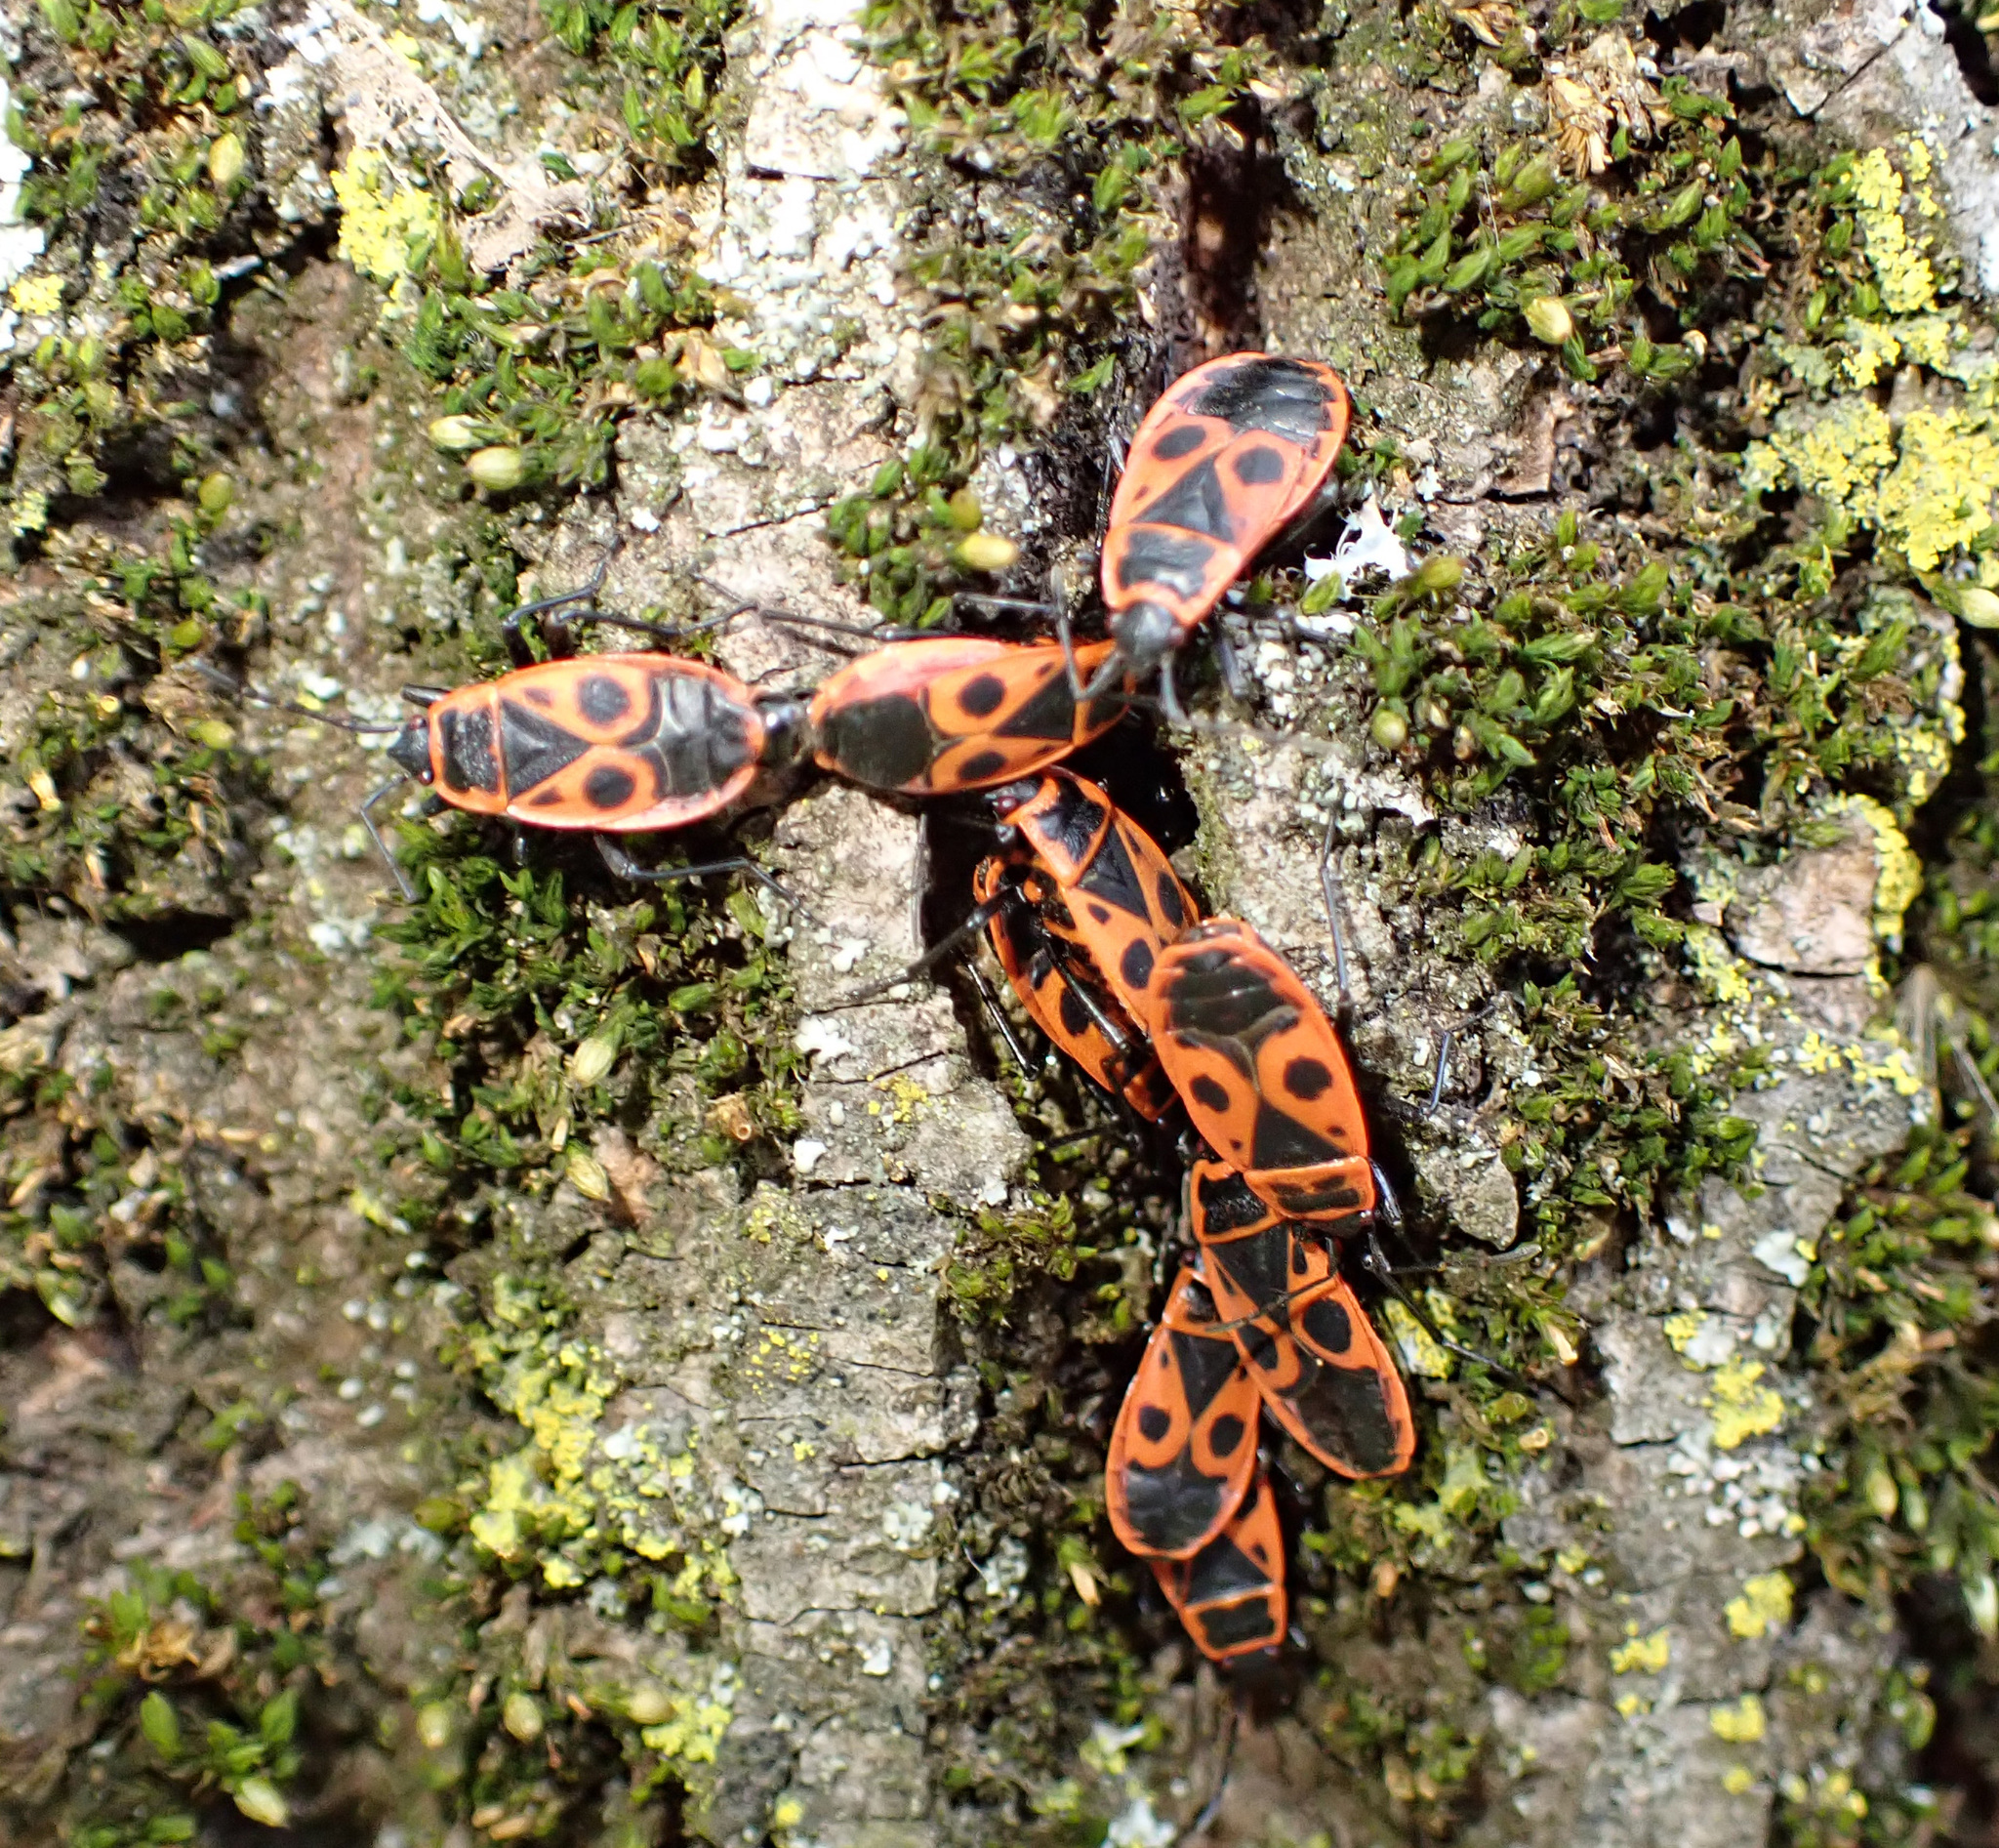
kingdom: Animalia
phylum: Arthropoda
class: Insecta
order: Hemiptera
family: Pyrrhocoridae
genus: Pyrrhocoris
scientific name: Pyrrhocoris apterus
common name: Firebug
